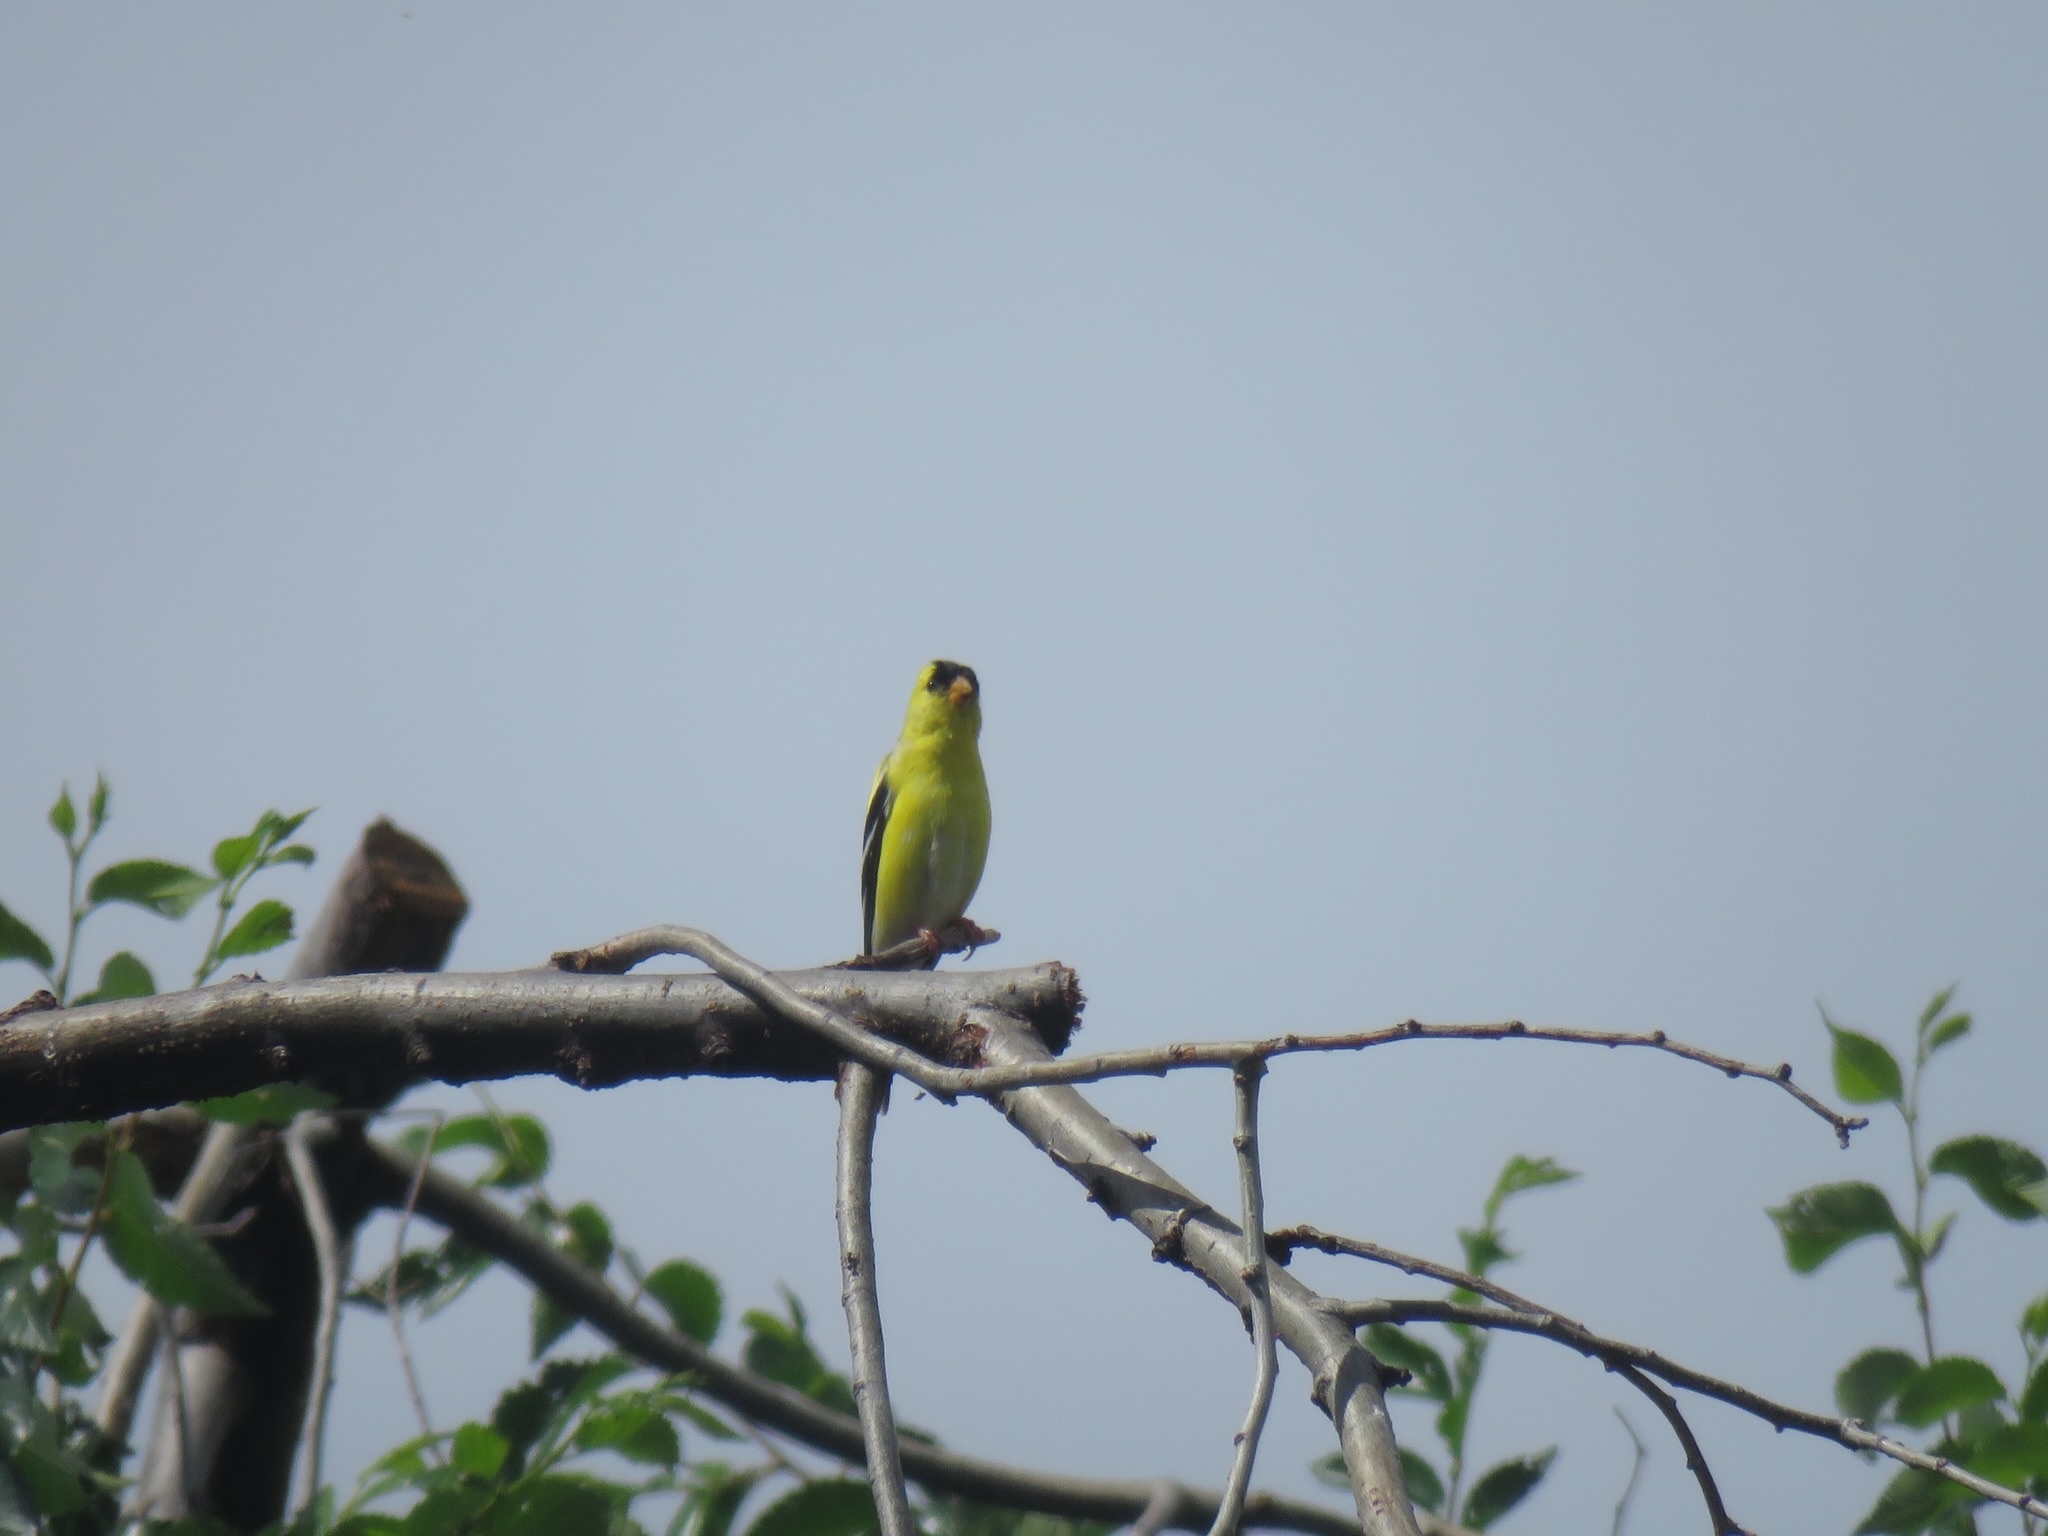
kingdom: Animalia
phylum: Chordata
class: Aves
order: Passeriformes
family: Fringillidae
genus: Spinus
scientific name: Spinus tristis
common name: American goldfinch
